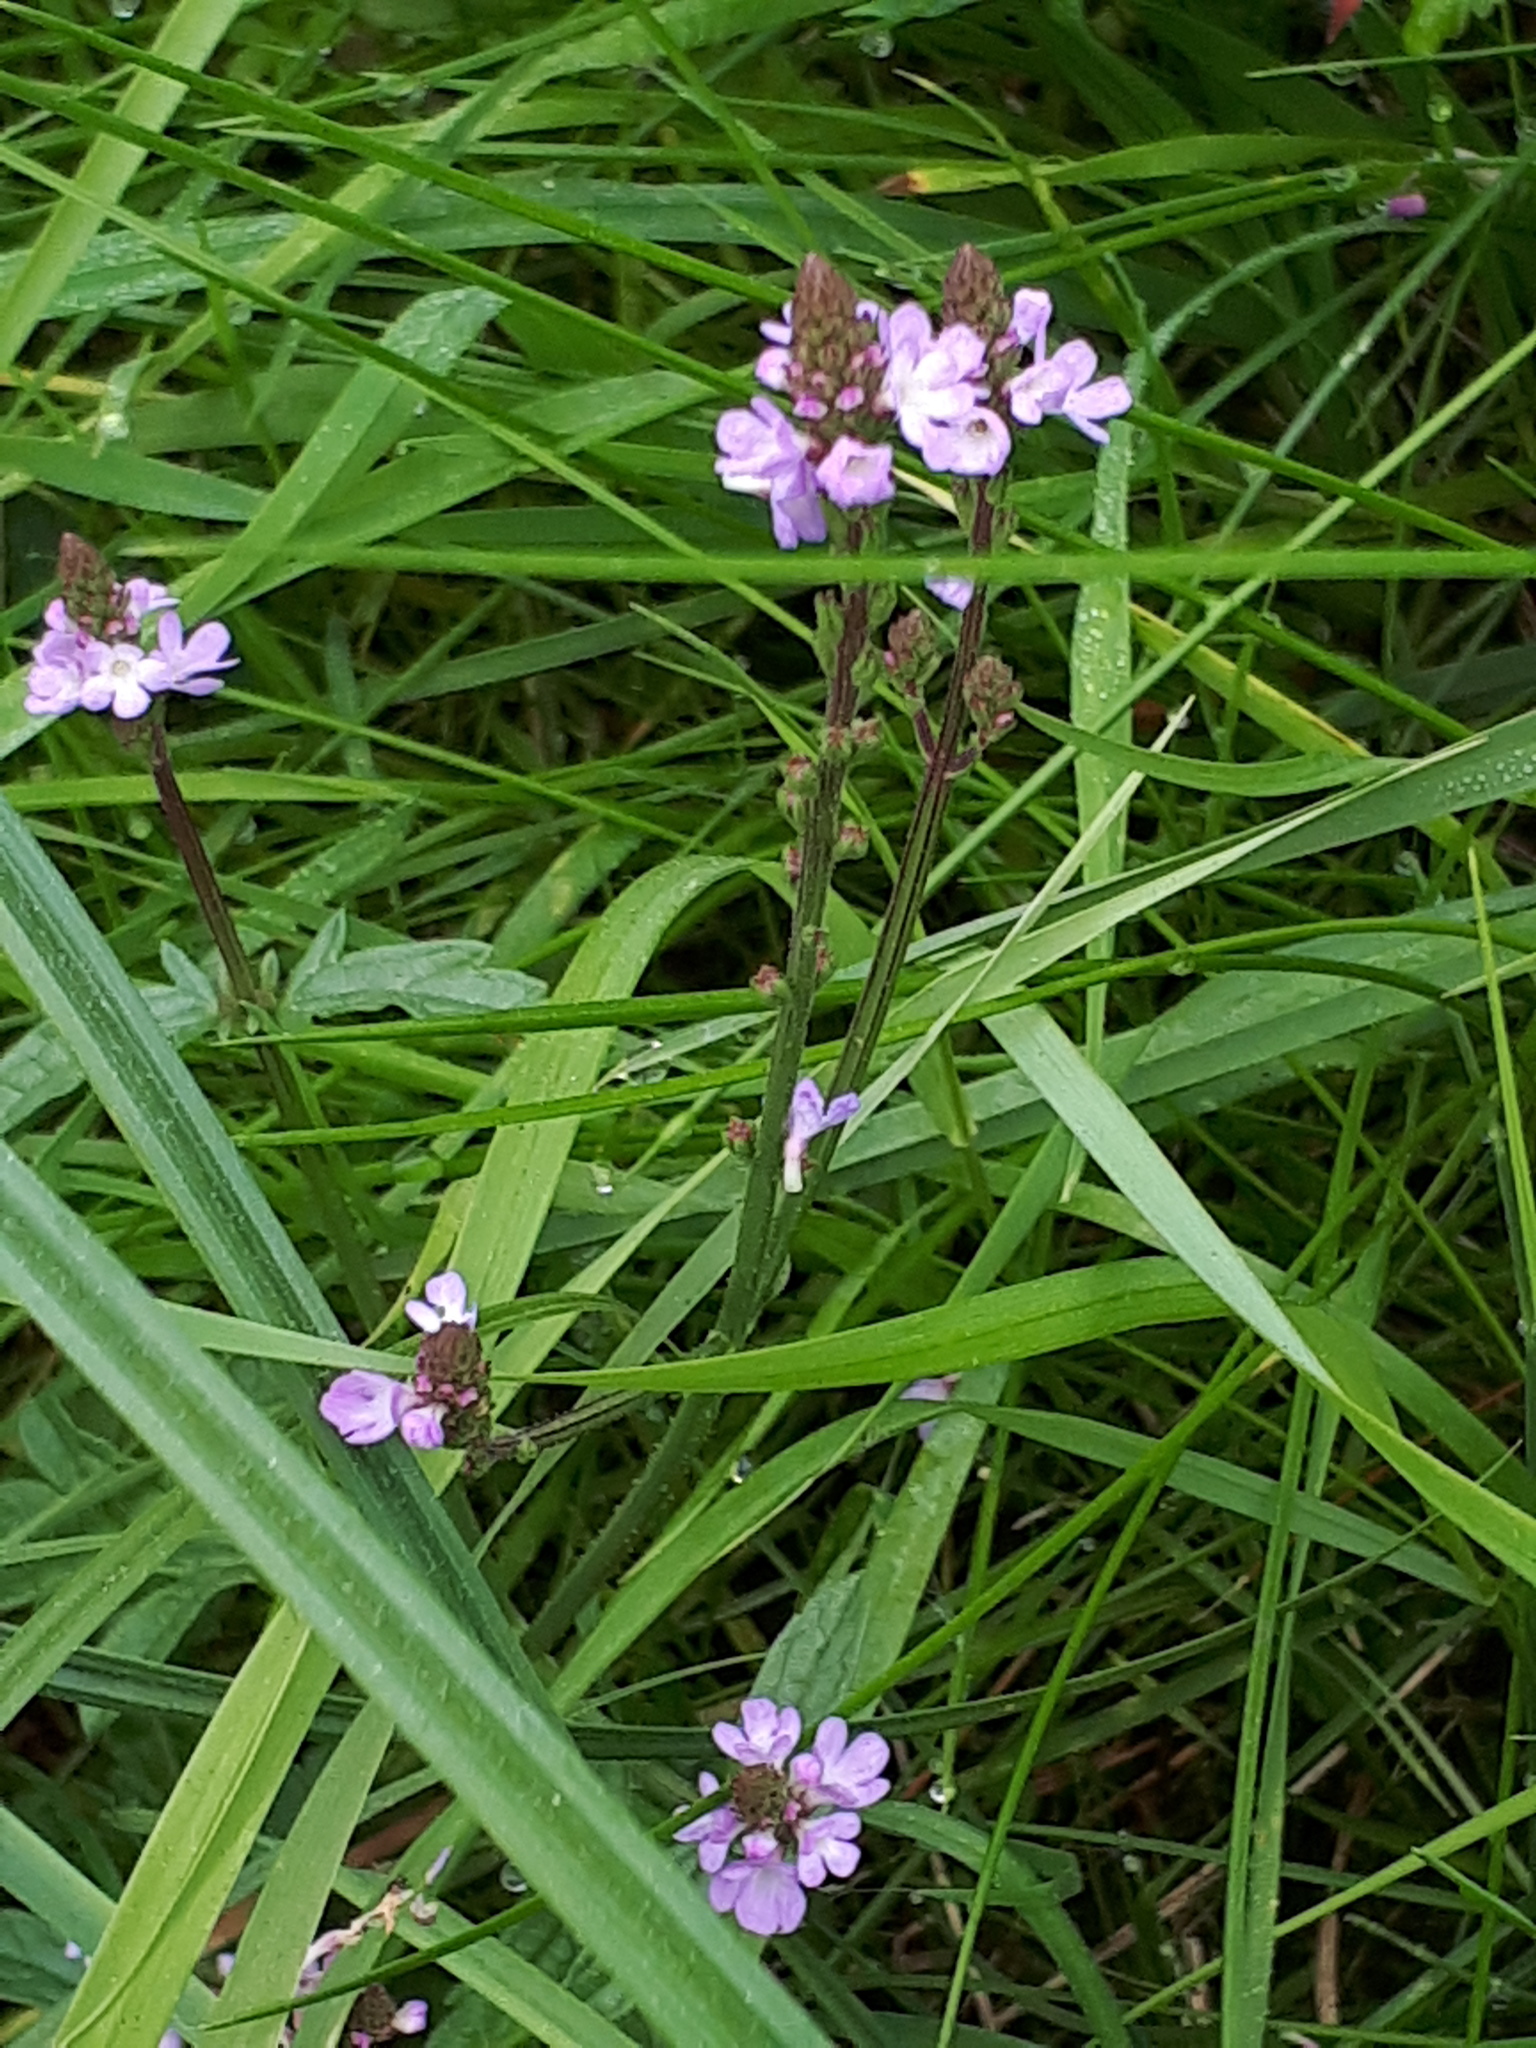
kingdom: Plantae
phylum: Tracheophyta
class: Magnoliopsida
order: Lamiales
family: Verbenaceae
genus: Verbena
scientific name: Verbena officinalis
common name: Vervain
